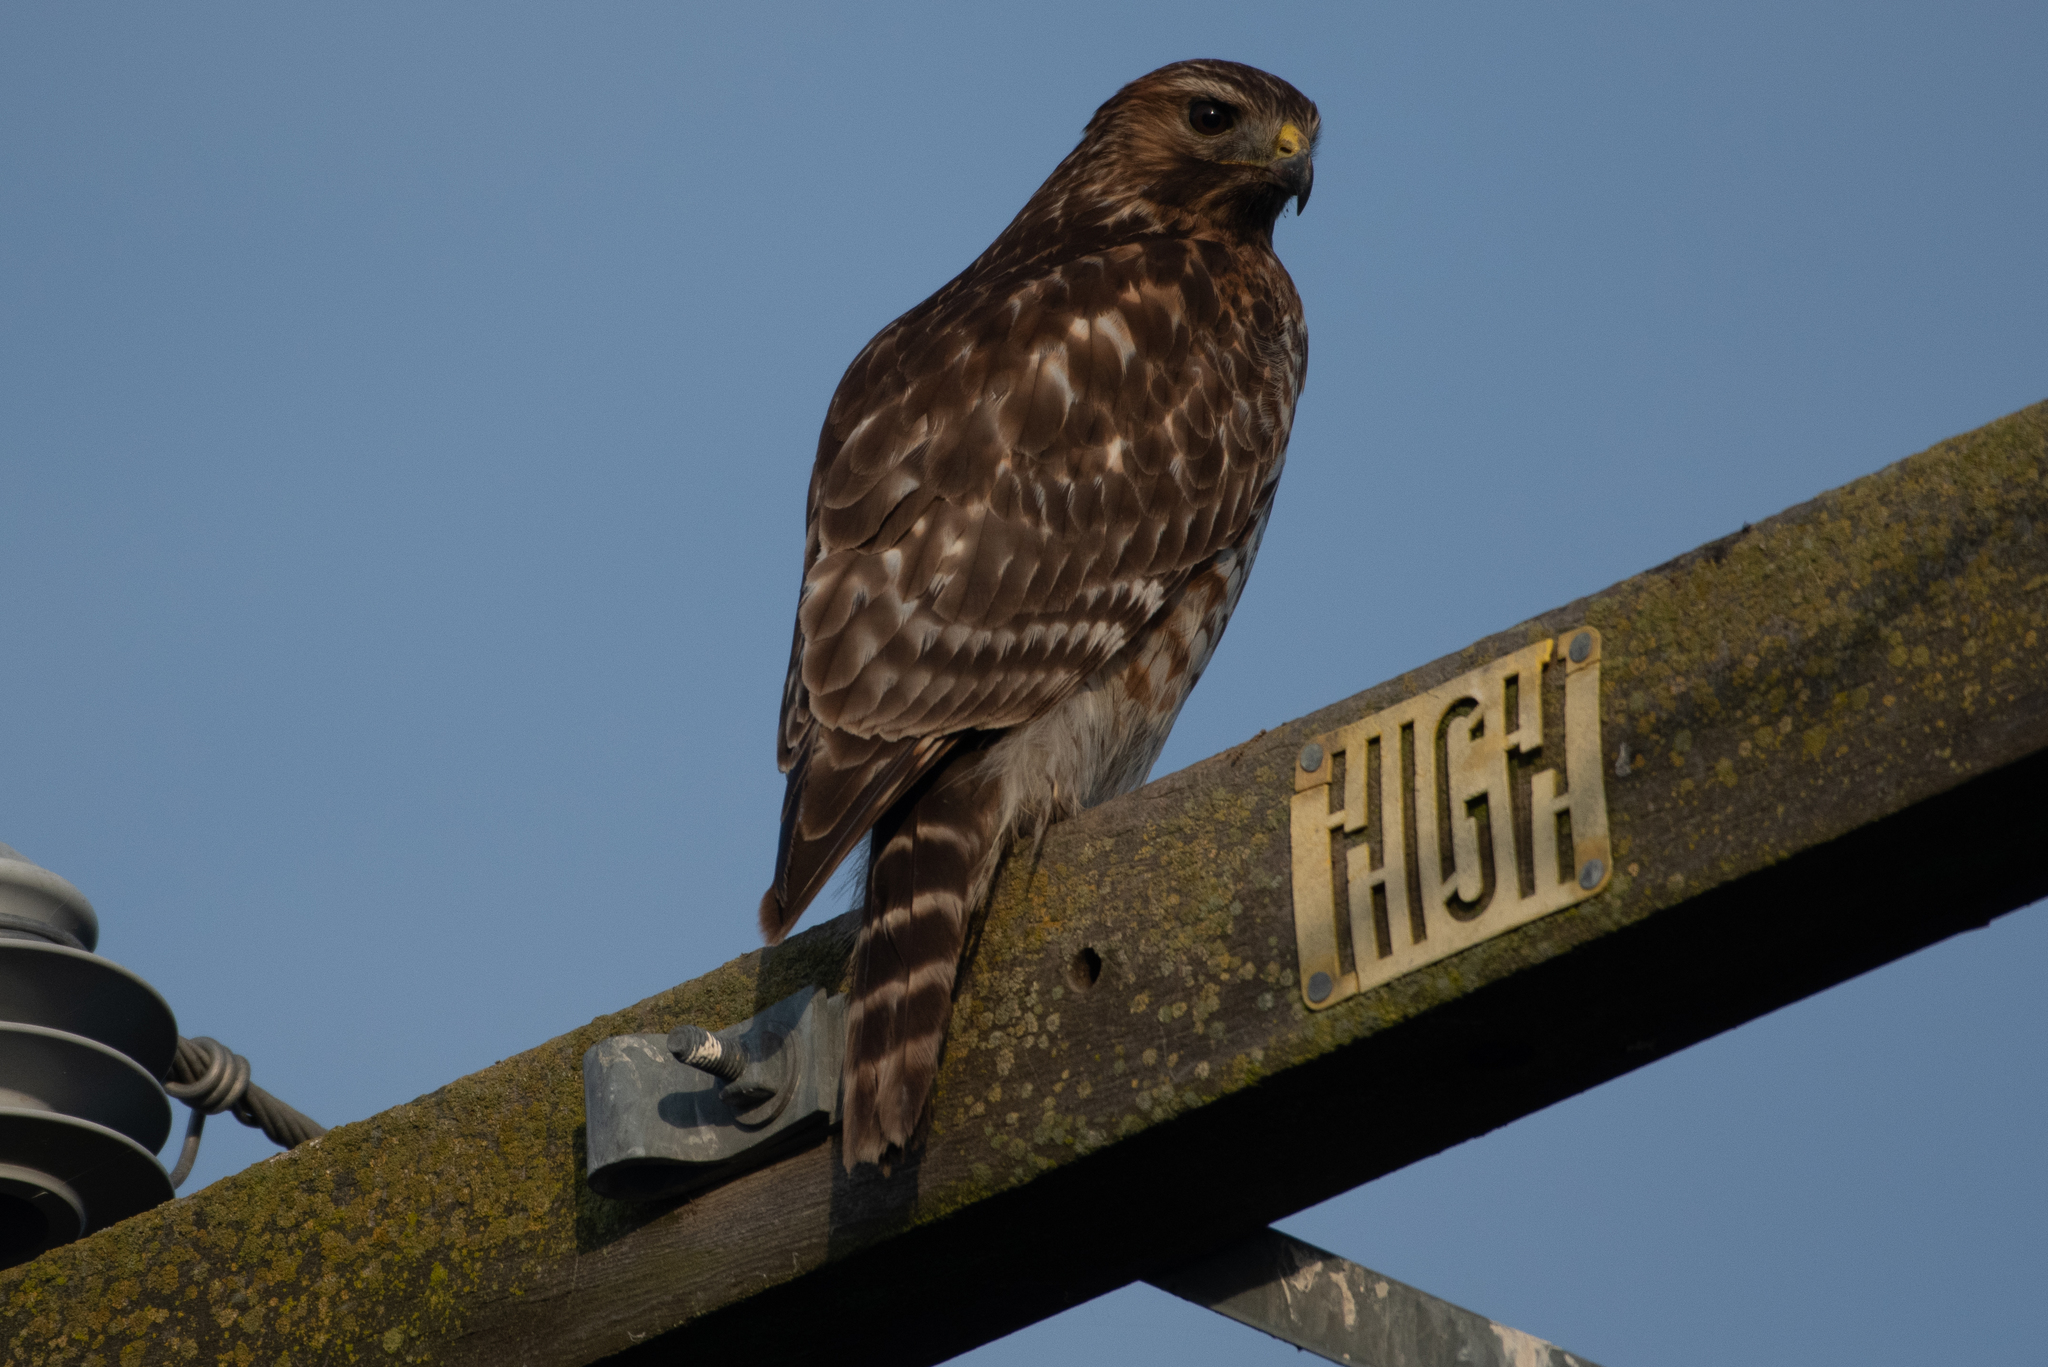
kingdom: Animalia
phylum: Chordata
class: Aves
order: Accipitriformes
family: Accipitridae
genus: Buteo
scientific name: Buteo lineatus
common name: Red-shouldered hawk
